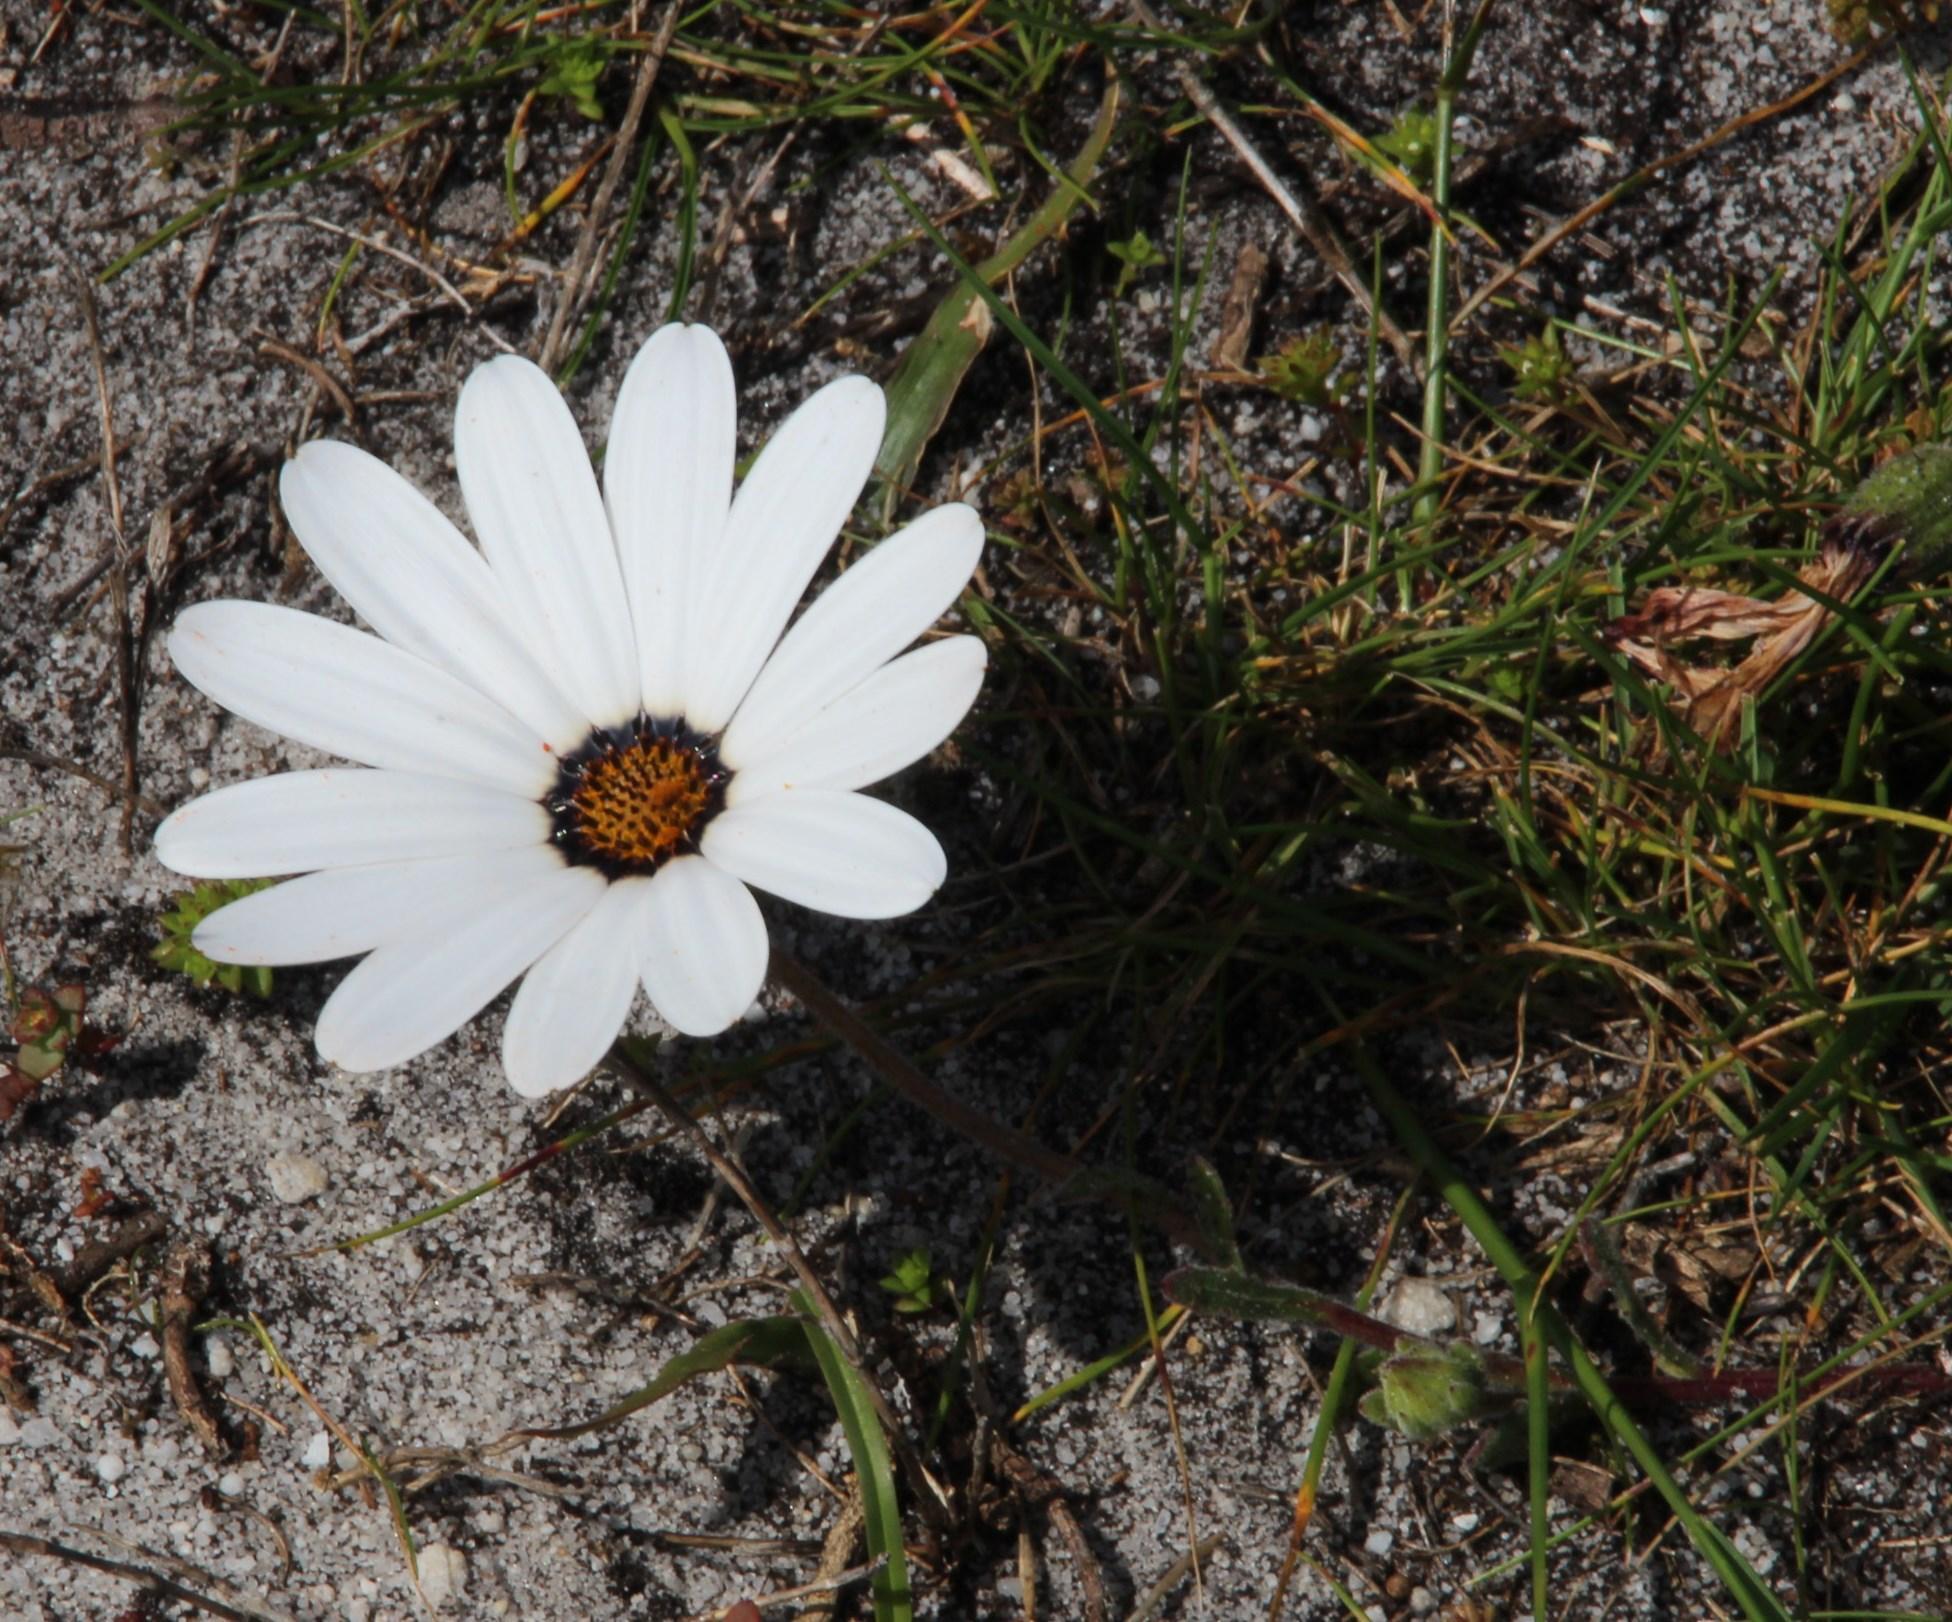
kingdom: Plantae
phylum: Tracheophyta
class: Magnoliopsida
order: Asterales
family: Asteraceae
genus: Dimorphotheca
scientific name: Dimorphotheca pluvialis
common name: Weather prophet
